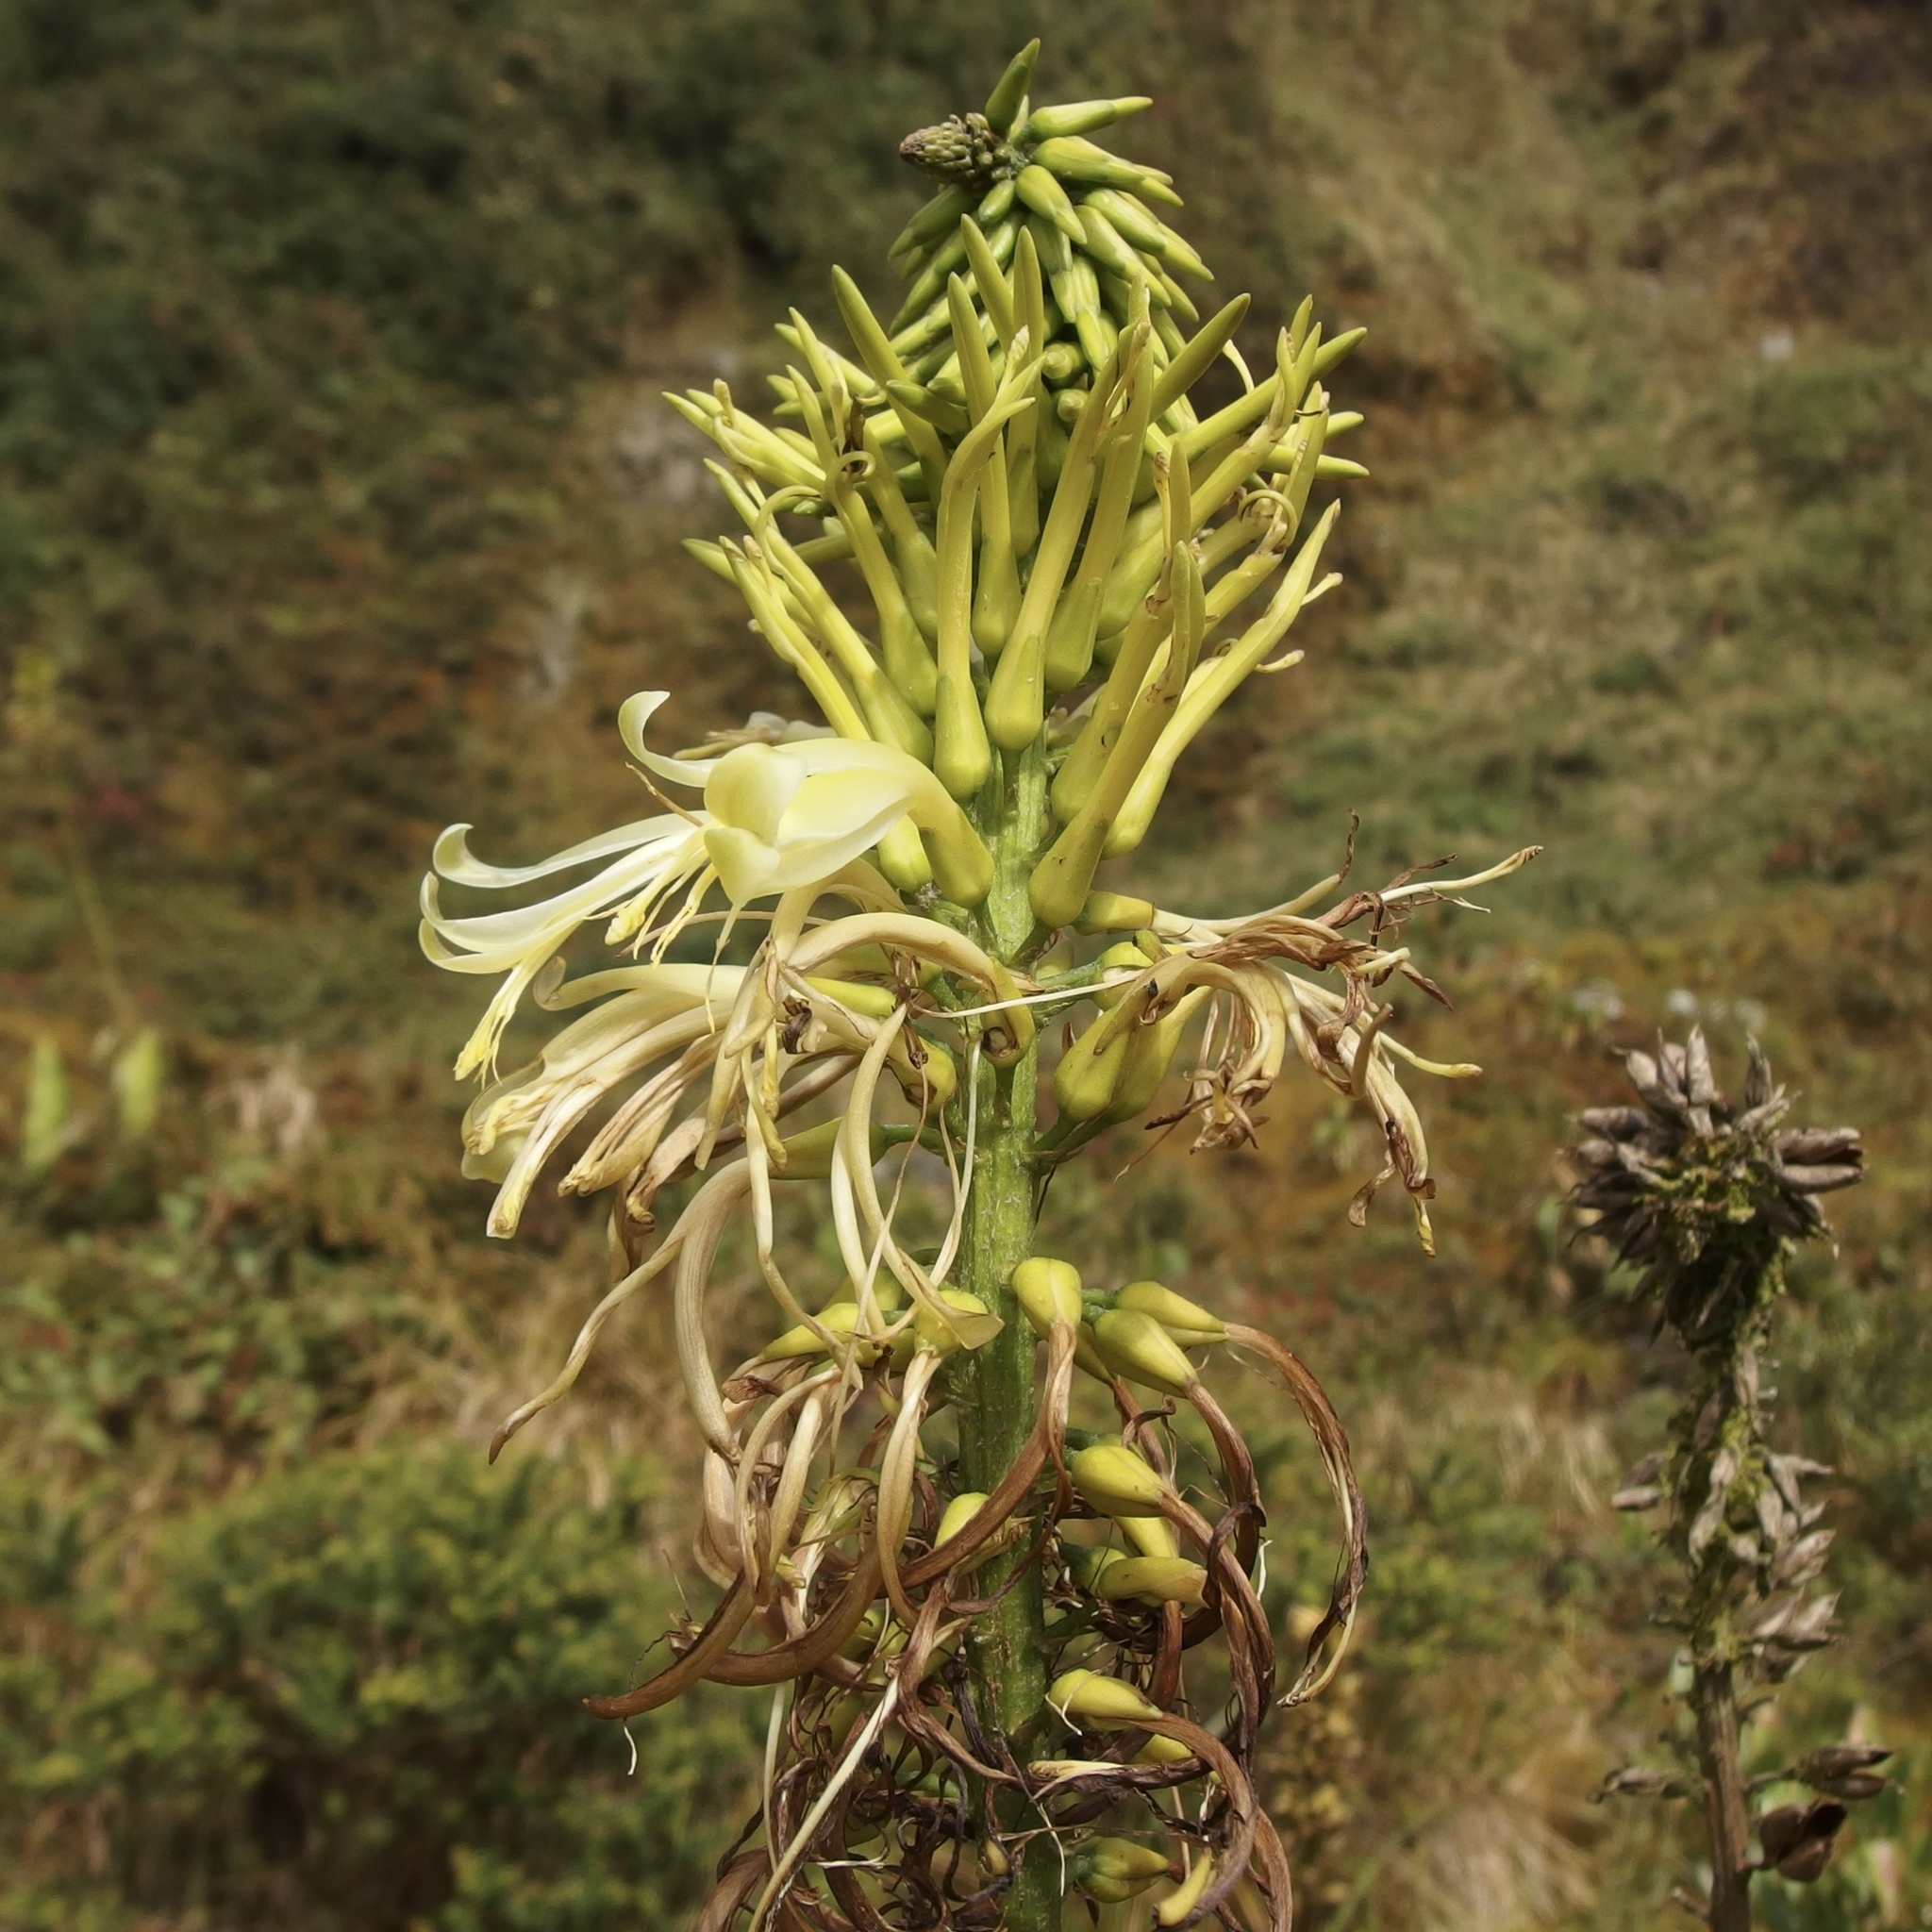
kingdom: Plantae
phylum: Tracheophyta
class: Liliopsida
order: Poales
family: Bromeliaceae
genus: Pitcairnia
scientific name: Pitcairnia trianae
